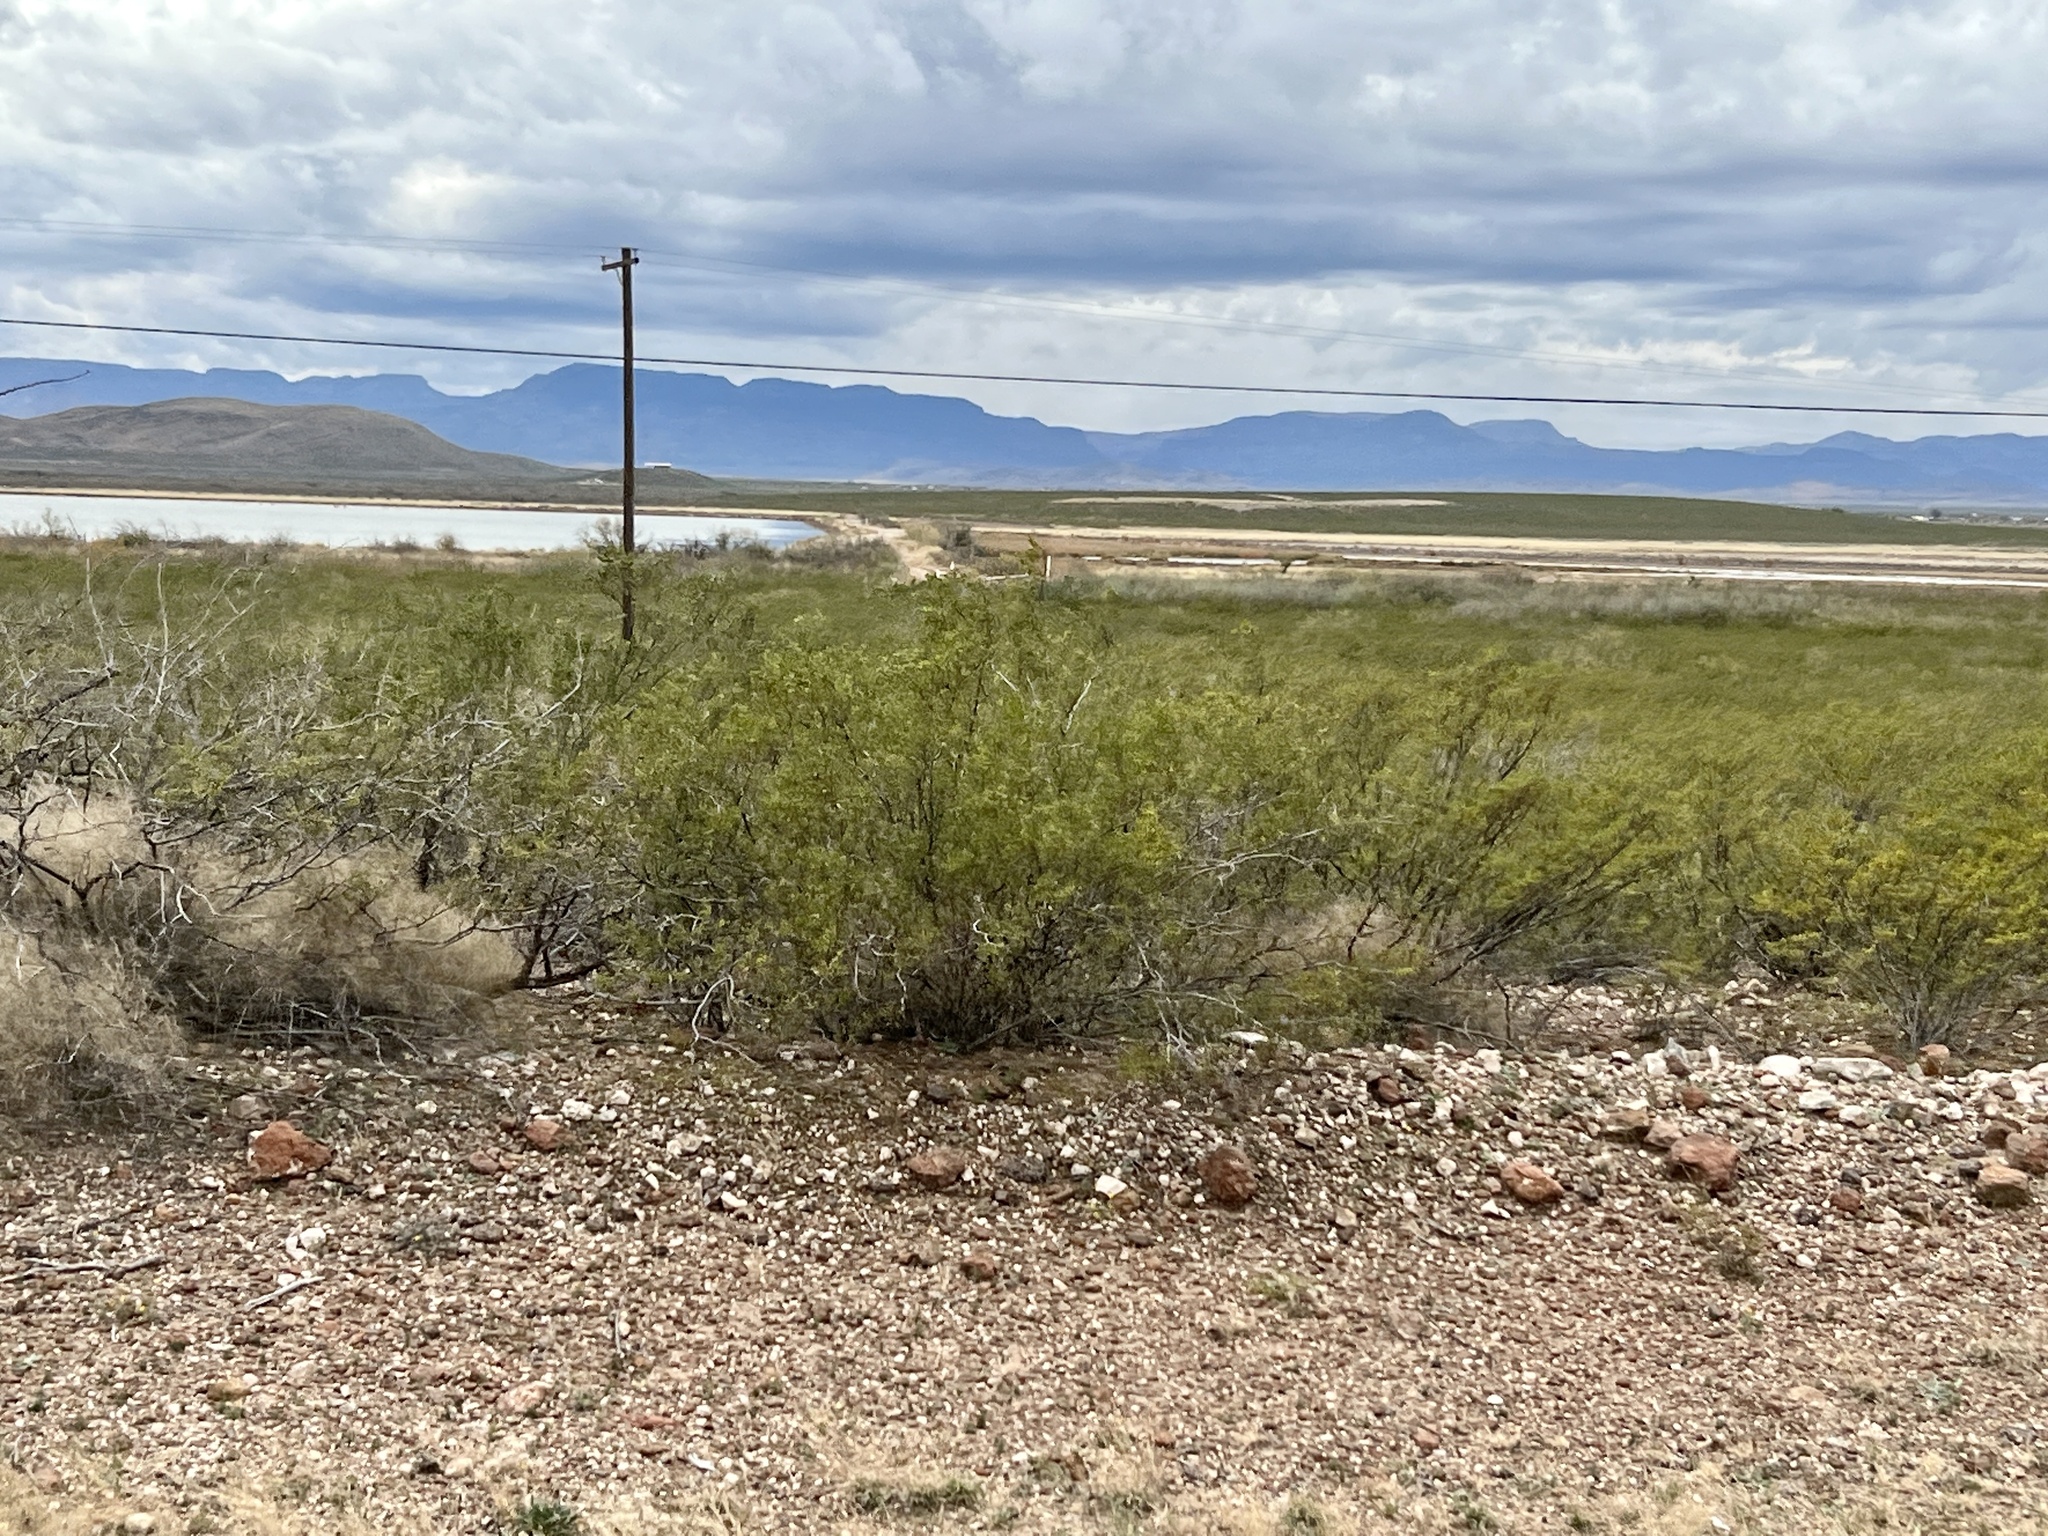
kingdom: Plantae
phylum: Tracheophyta
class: Magnoliopsida
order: Zygophyllales
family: Zygophyllaceae
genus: Larrea
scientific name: Larrea tridentata
